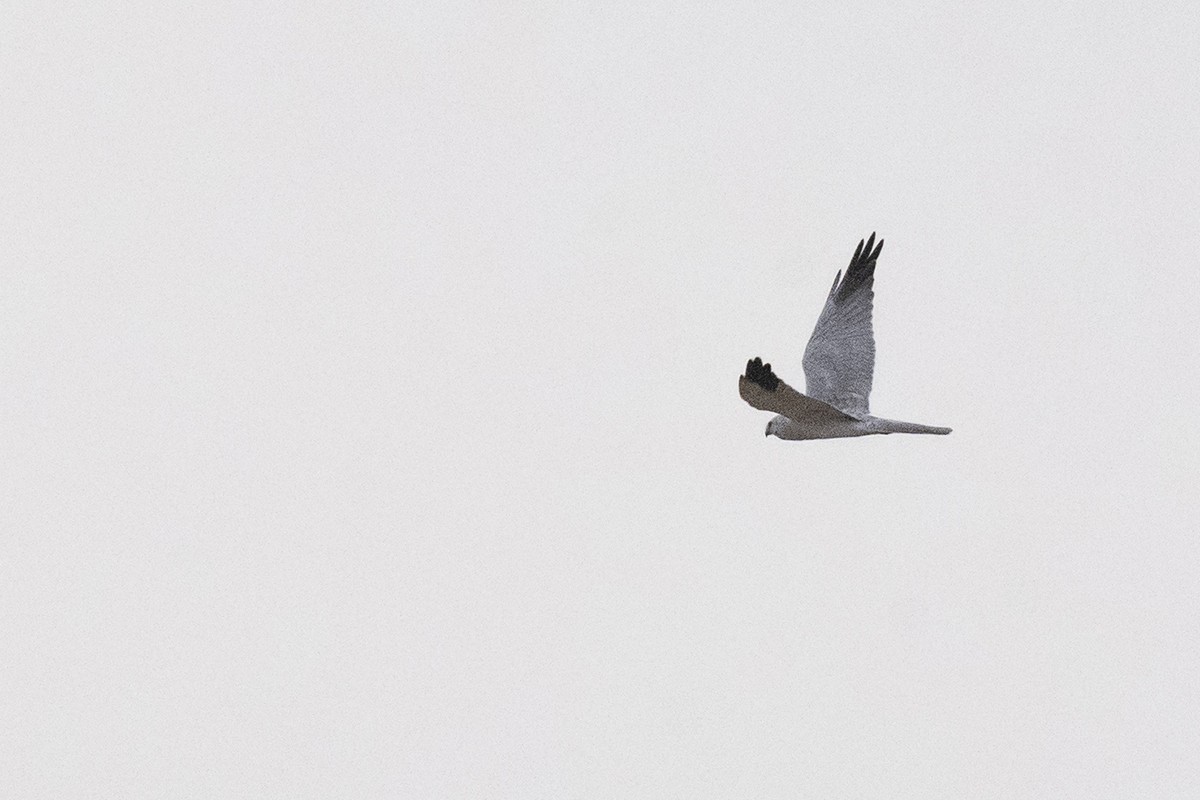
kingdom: Animalia
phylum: Chordata
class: Aves
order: Accipitriformes
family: Accipitridae
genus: Circus
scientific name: Circus macrourus
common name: Pallid harrier
